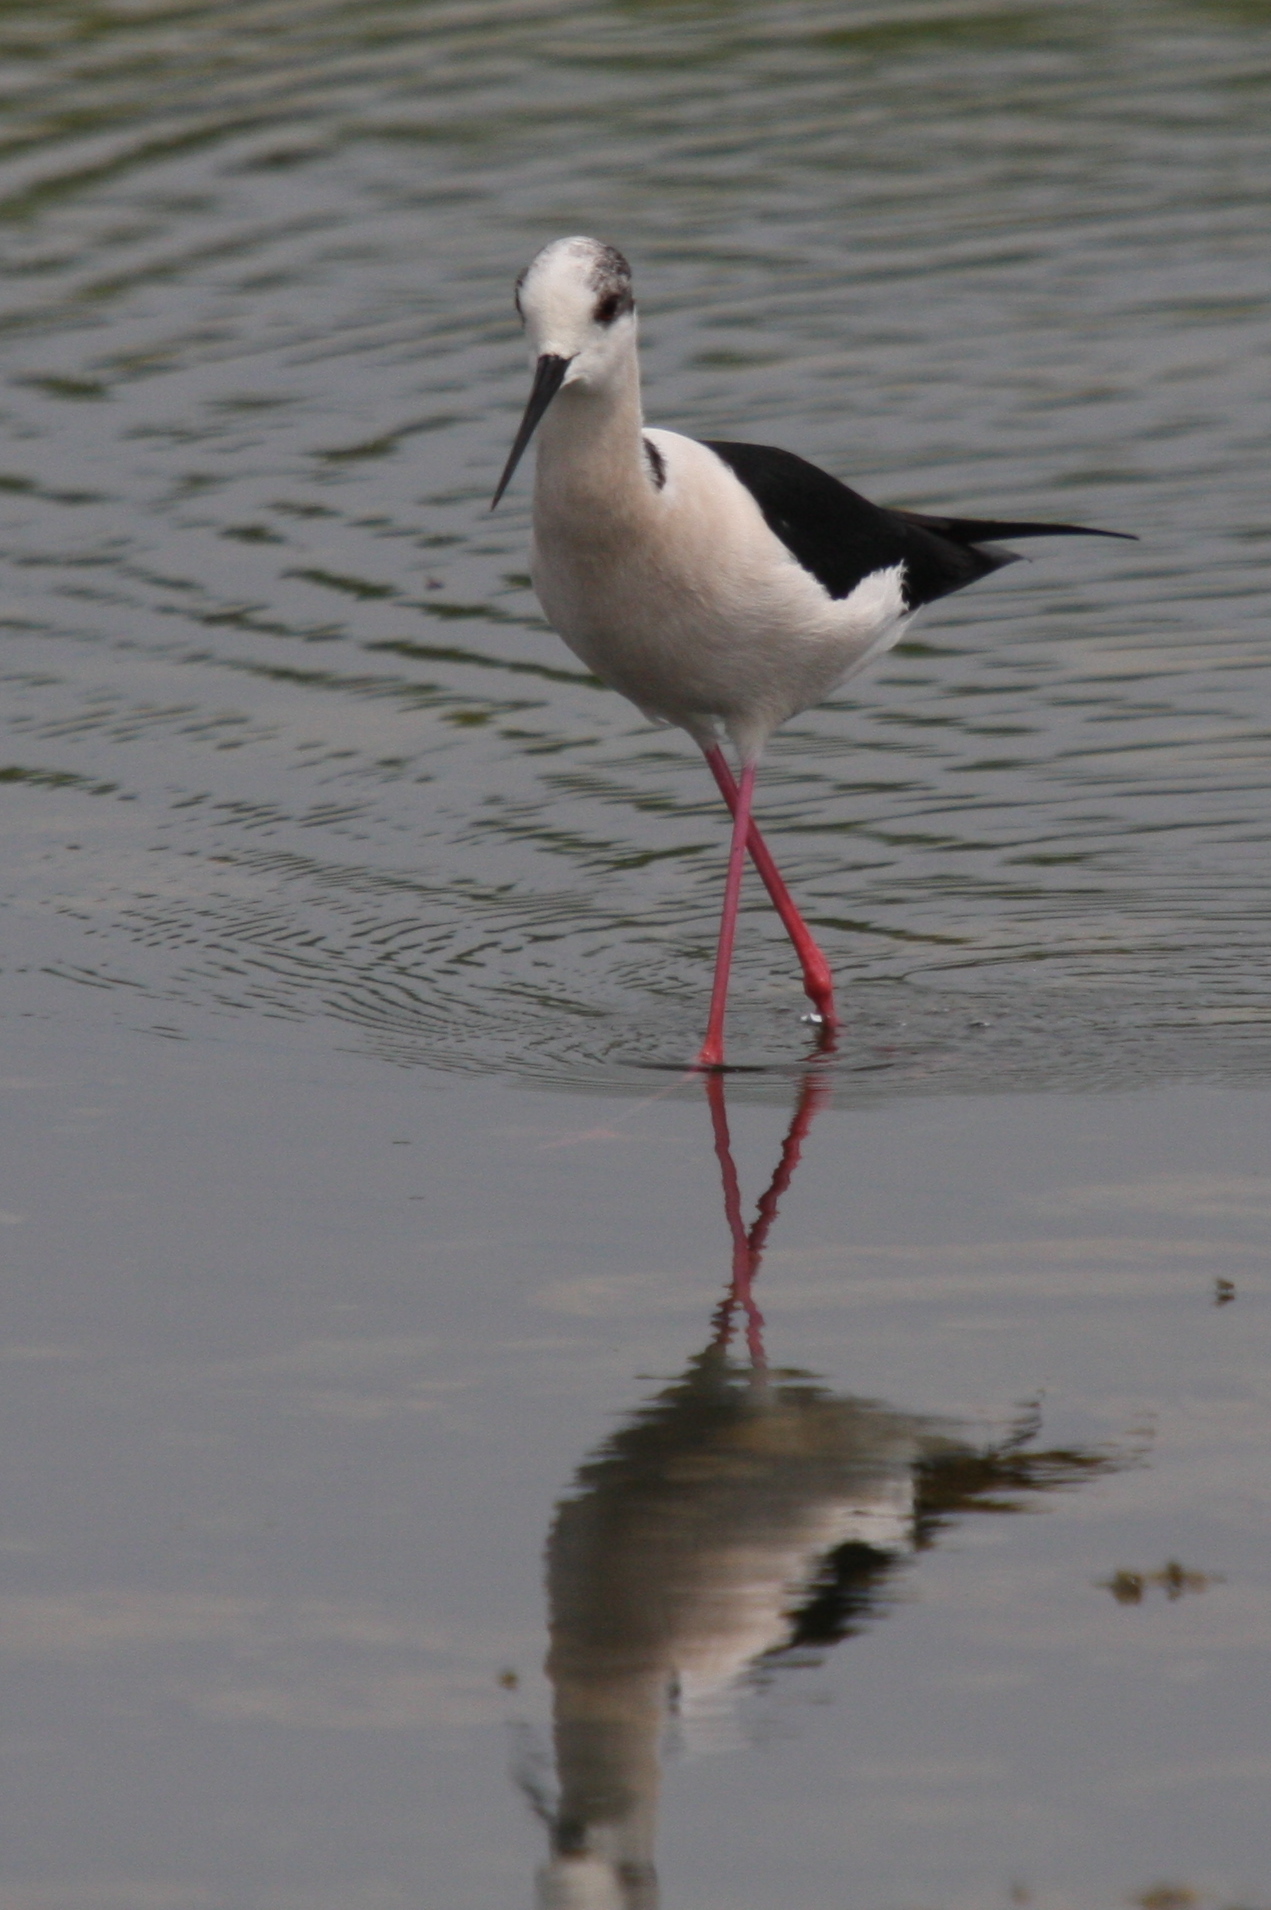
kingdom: Animalia
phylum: Chordata
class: Aves
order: Charadriiformes
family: Recurvirostridae
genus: Himantopus
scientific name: Himantopus himantopus
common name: Black-winged stilt
